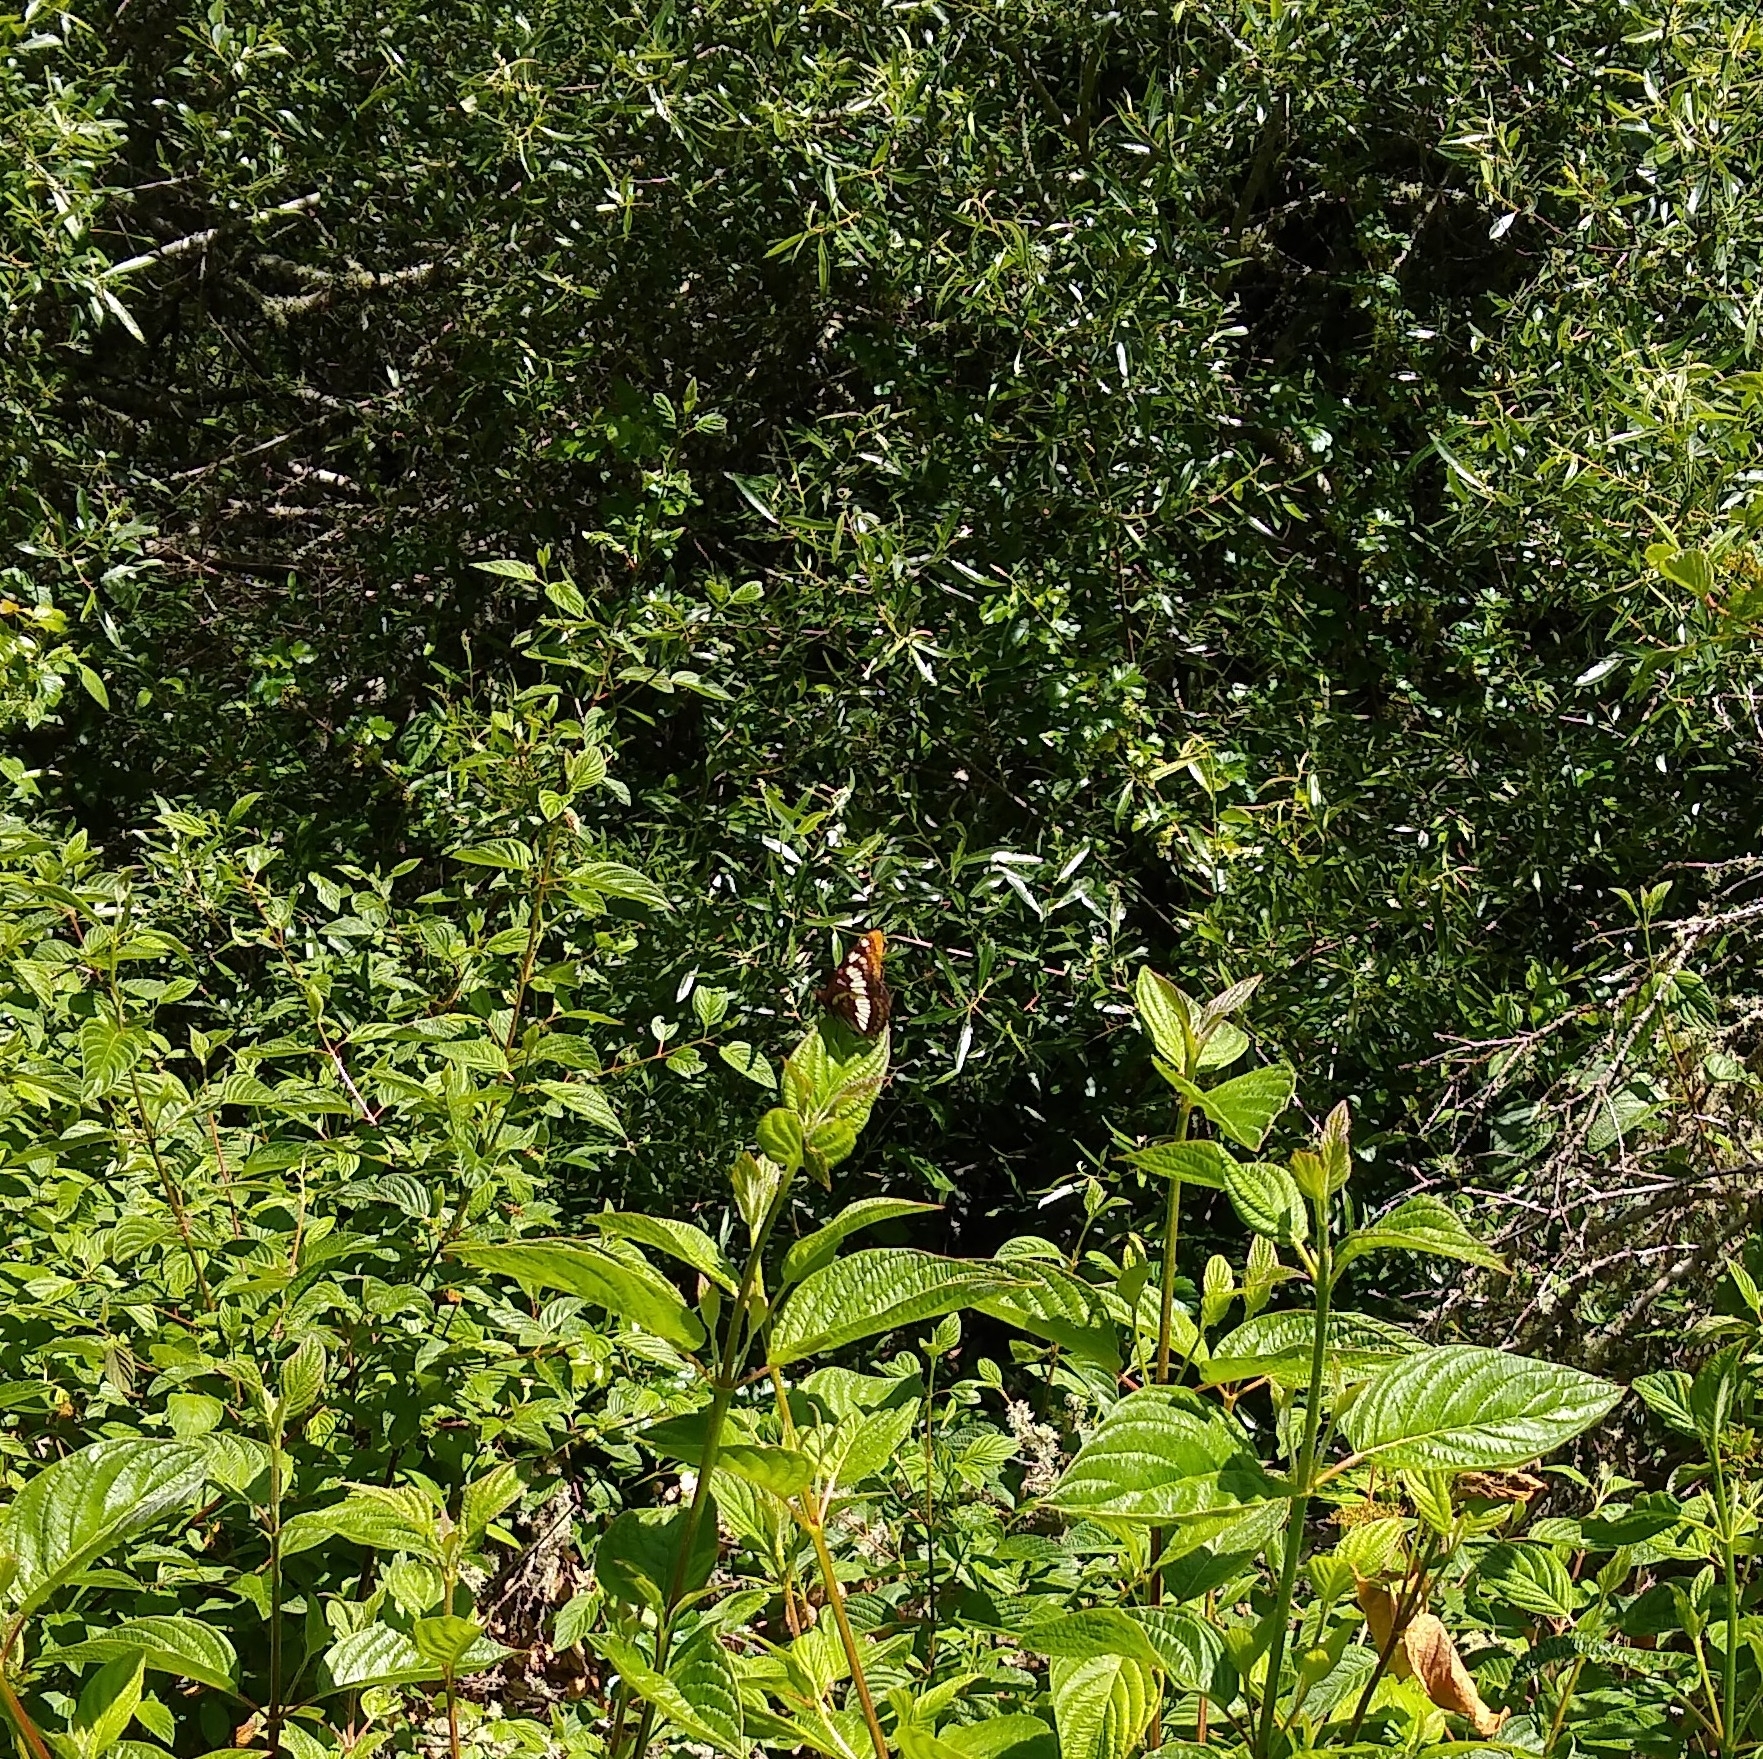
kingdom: Animalia
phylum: Arthropoda
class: Insecta
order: Lepidoptera
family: Nymphalidae
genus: Limenitis
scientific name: Limenitis lorquini
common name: Lorquin's admiral
